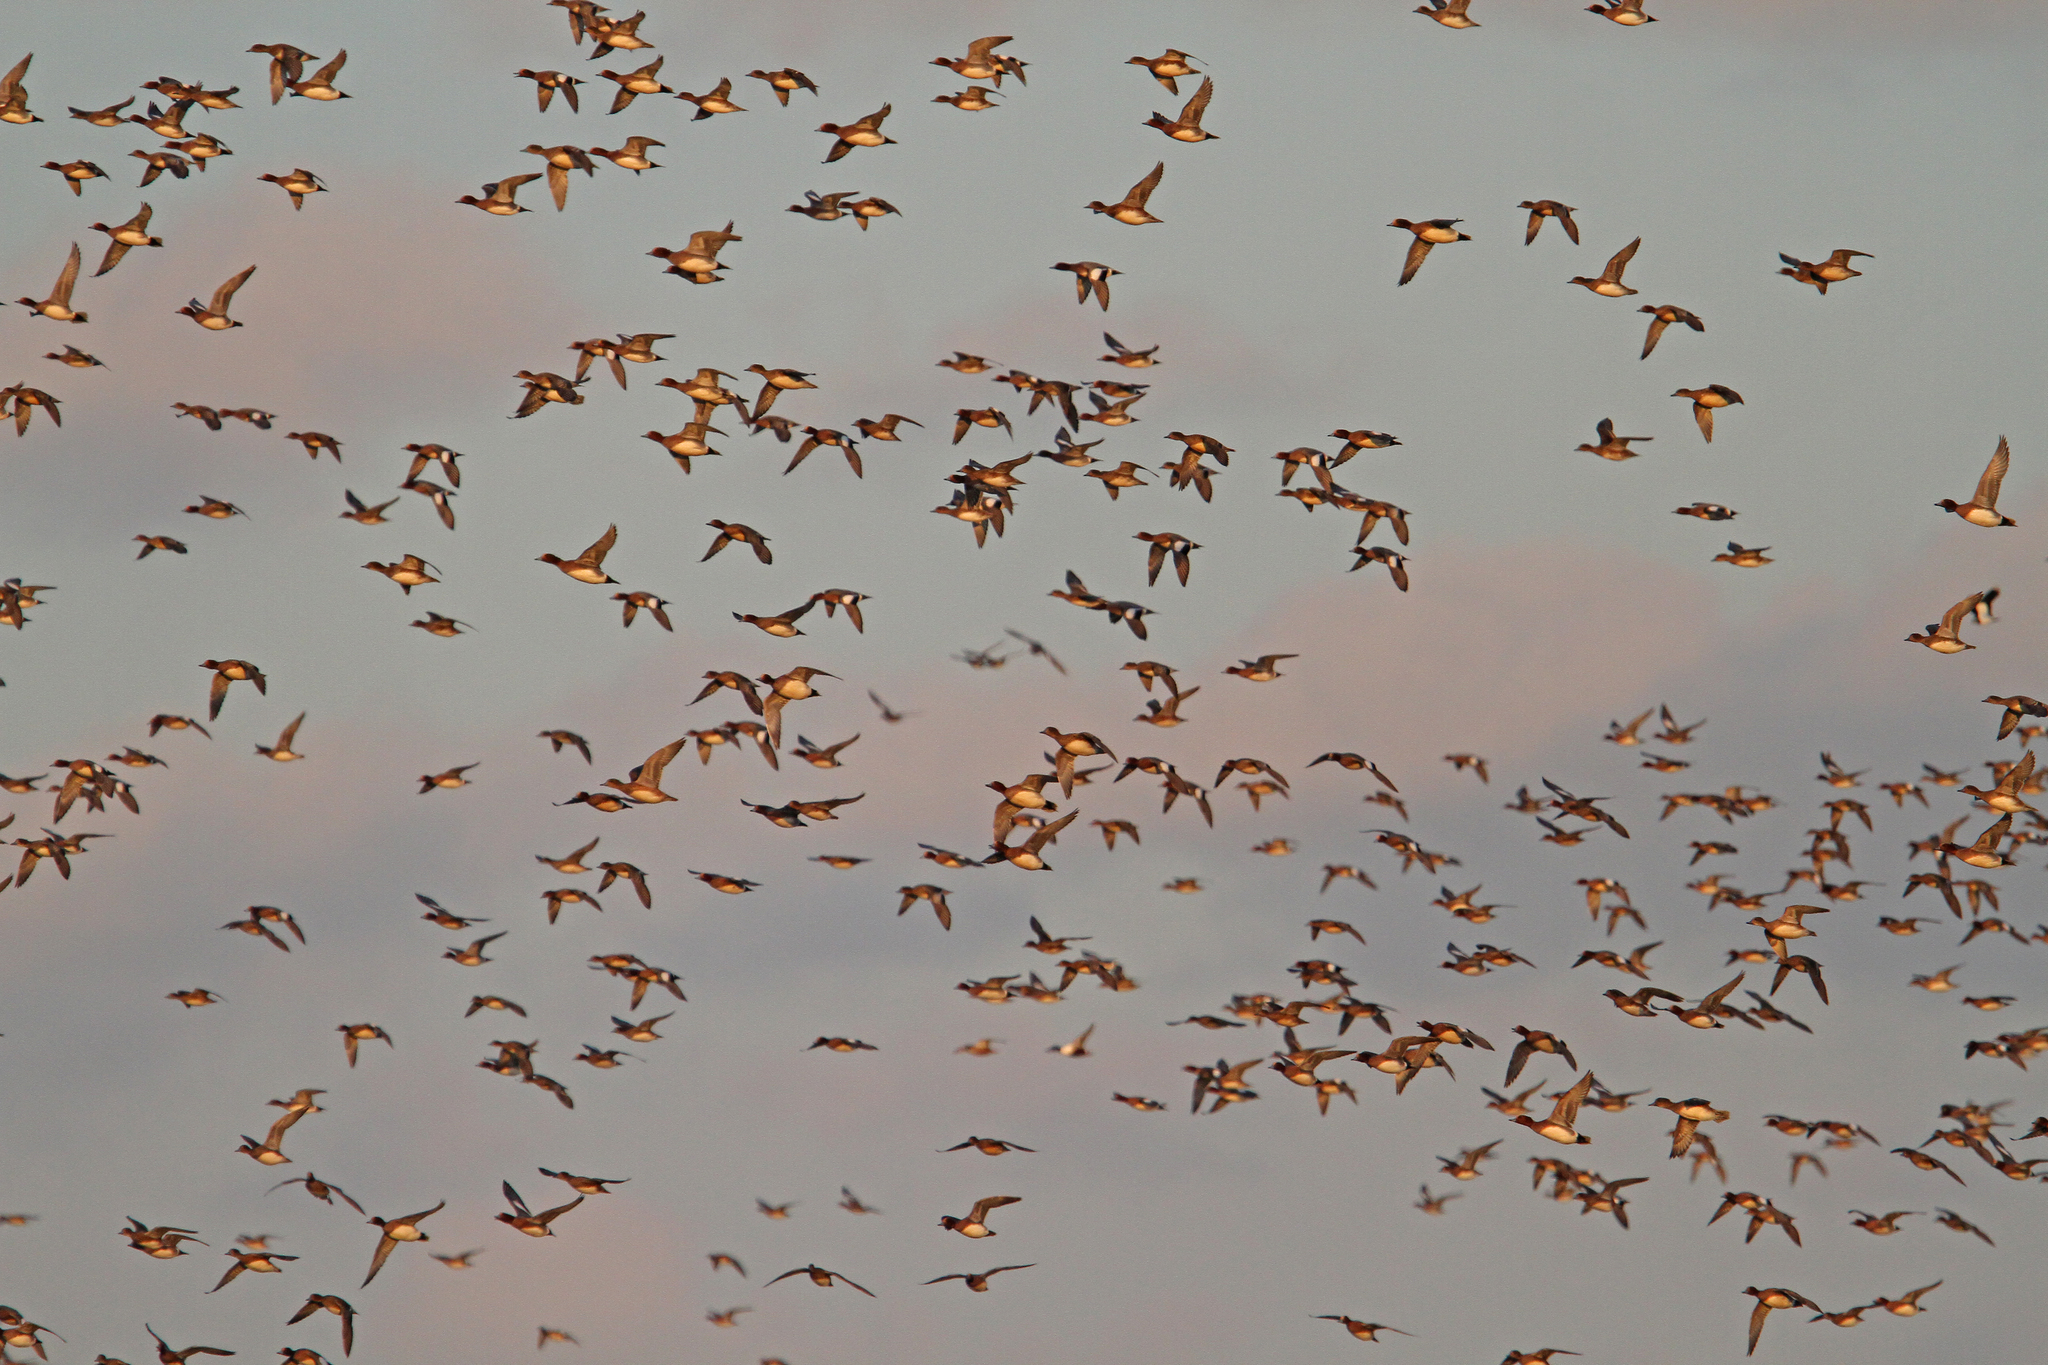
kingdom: Animalia
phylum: Chordata
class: Aves
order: Anseriformes
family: Anatidae
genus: Mareca
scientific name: Mareca penelope
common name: Eurasian wigeon
